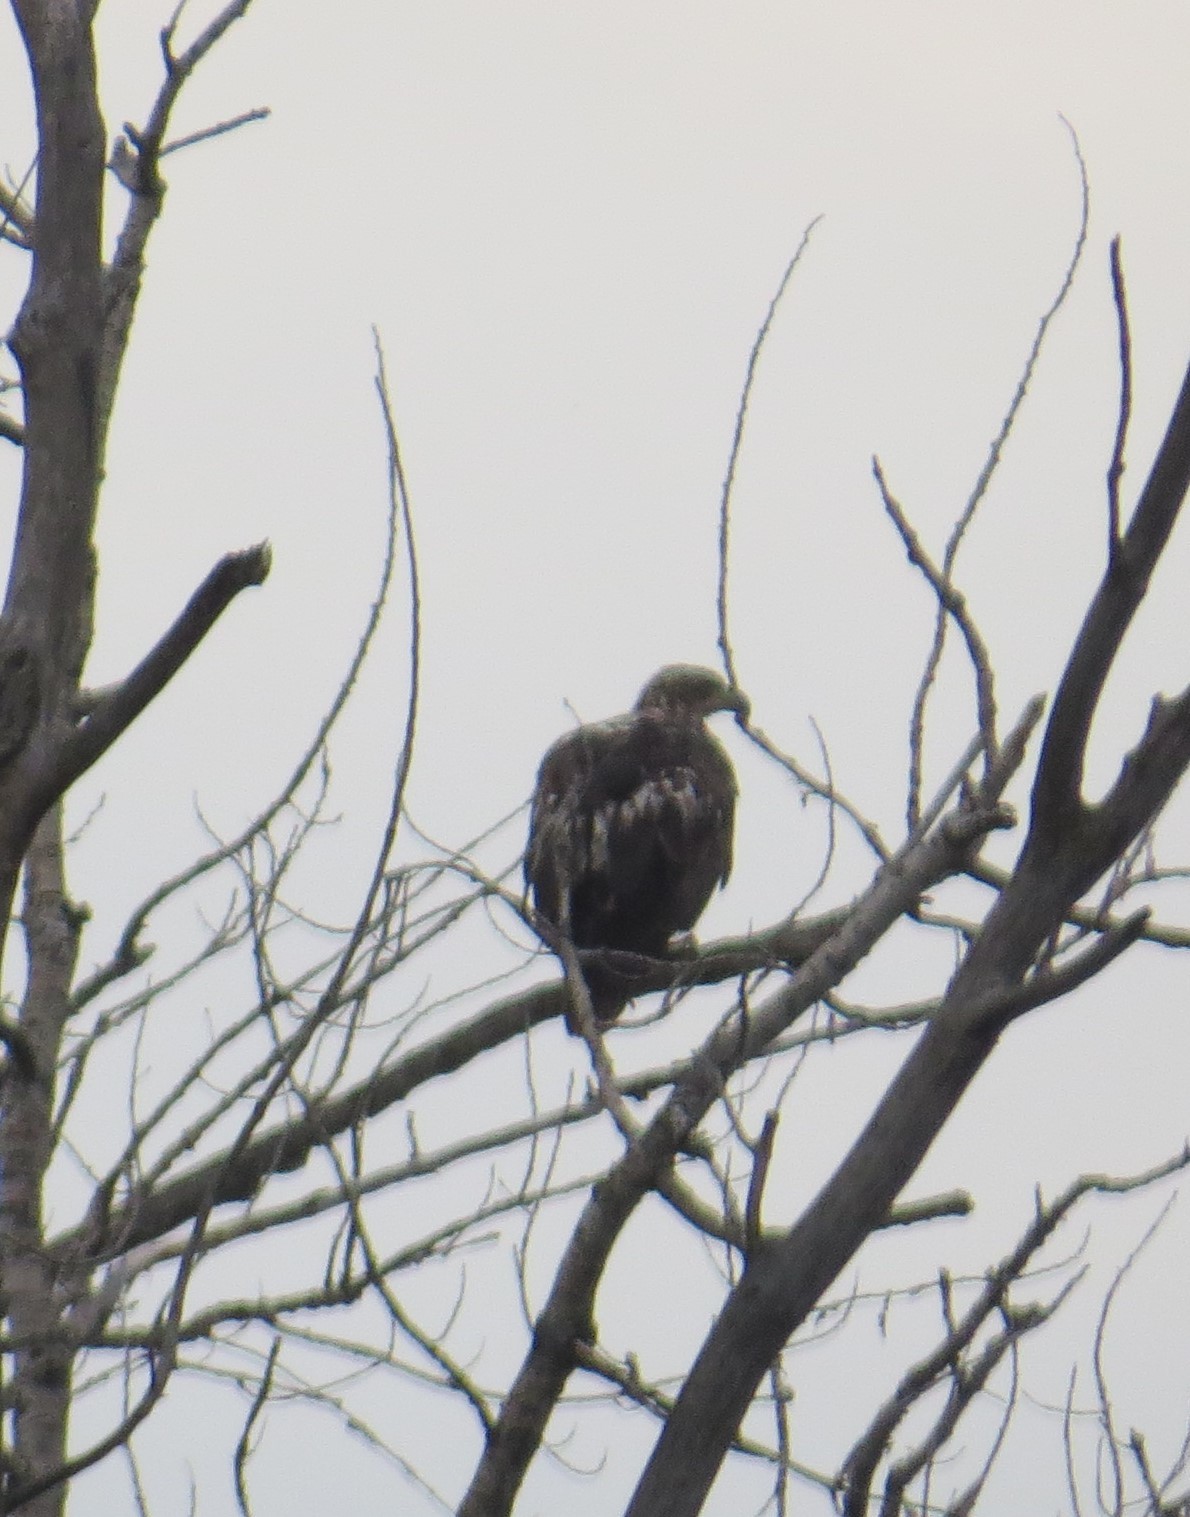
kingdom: Animalia
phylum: Chordata
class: Aves
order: Accipitriformes
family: Accipitridae
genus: Haliaeetus
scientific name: Haliaeetus leucocephalus
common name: Bald eagle
